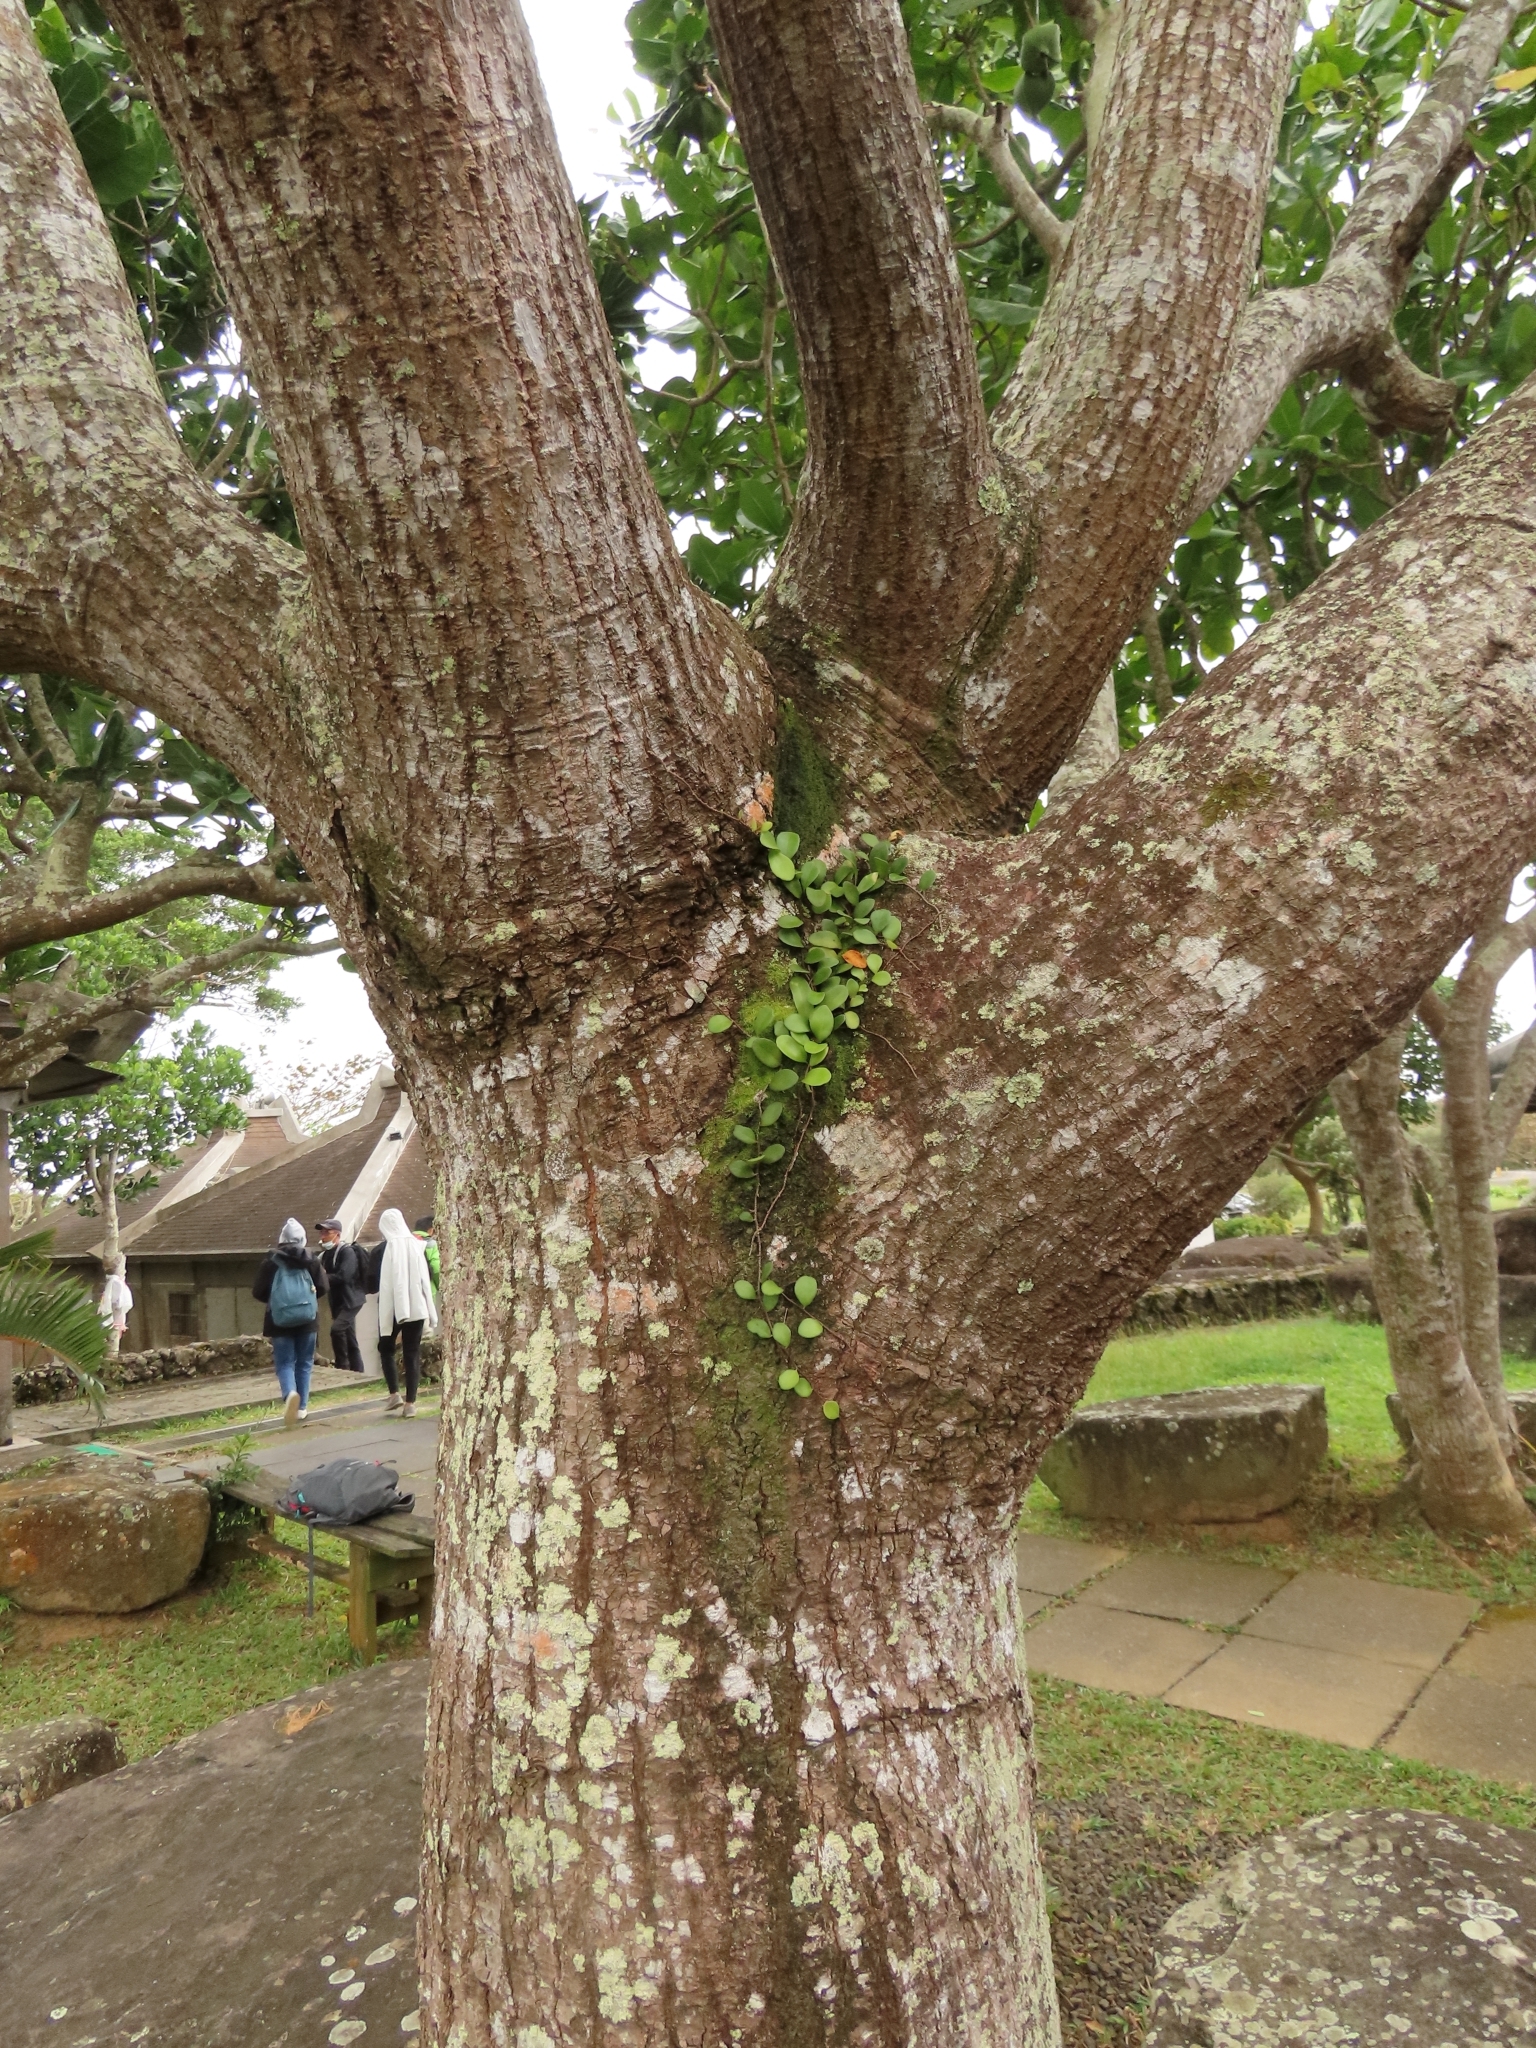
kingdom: Plantae
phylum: Tracheophyta
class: Polypodiopsida
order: Polypodiales
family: Polypodiaceae
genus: Pyrrosia
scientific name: Pyrrosia lanceolata
